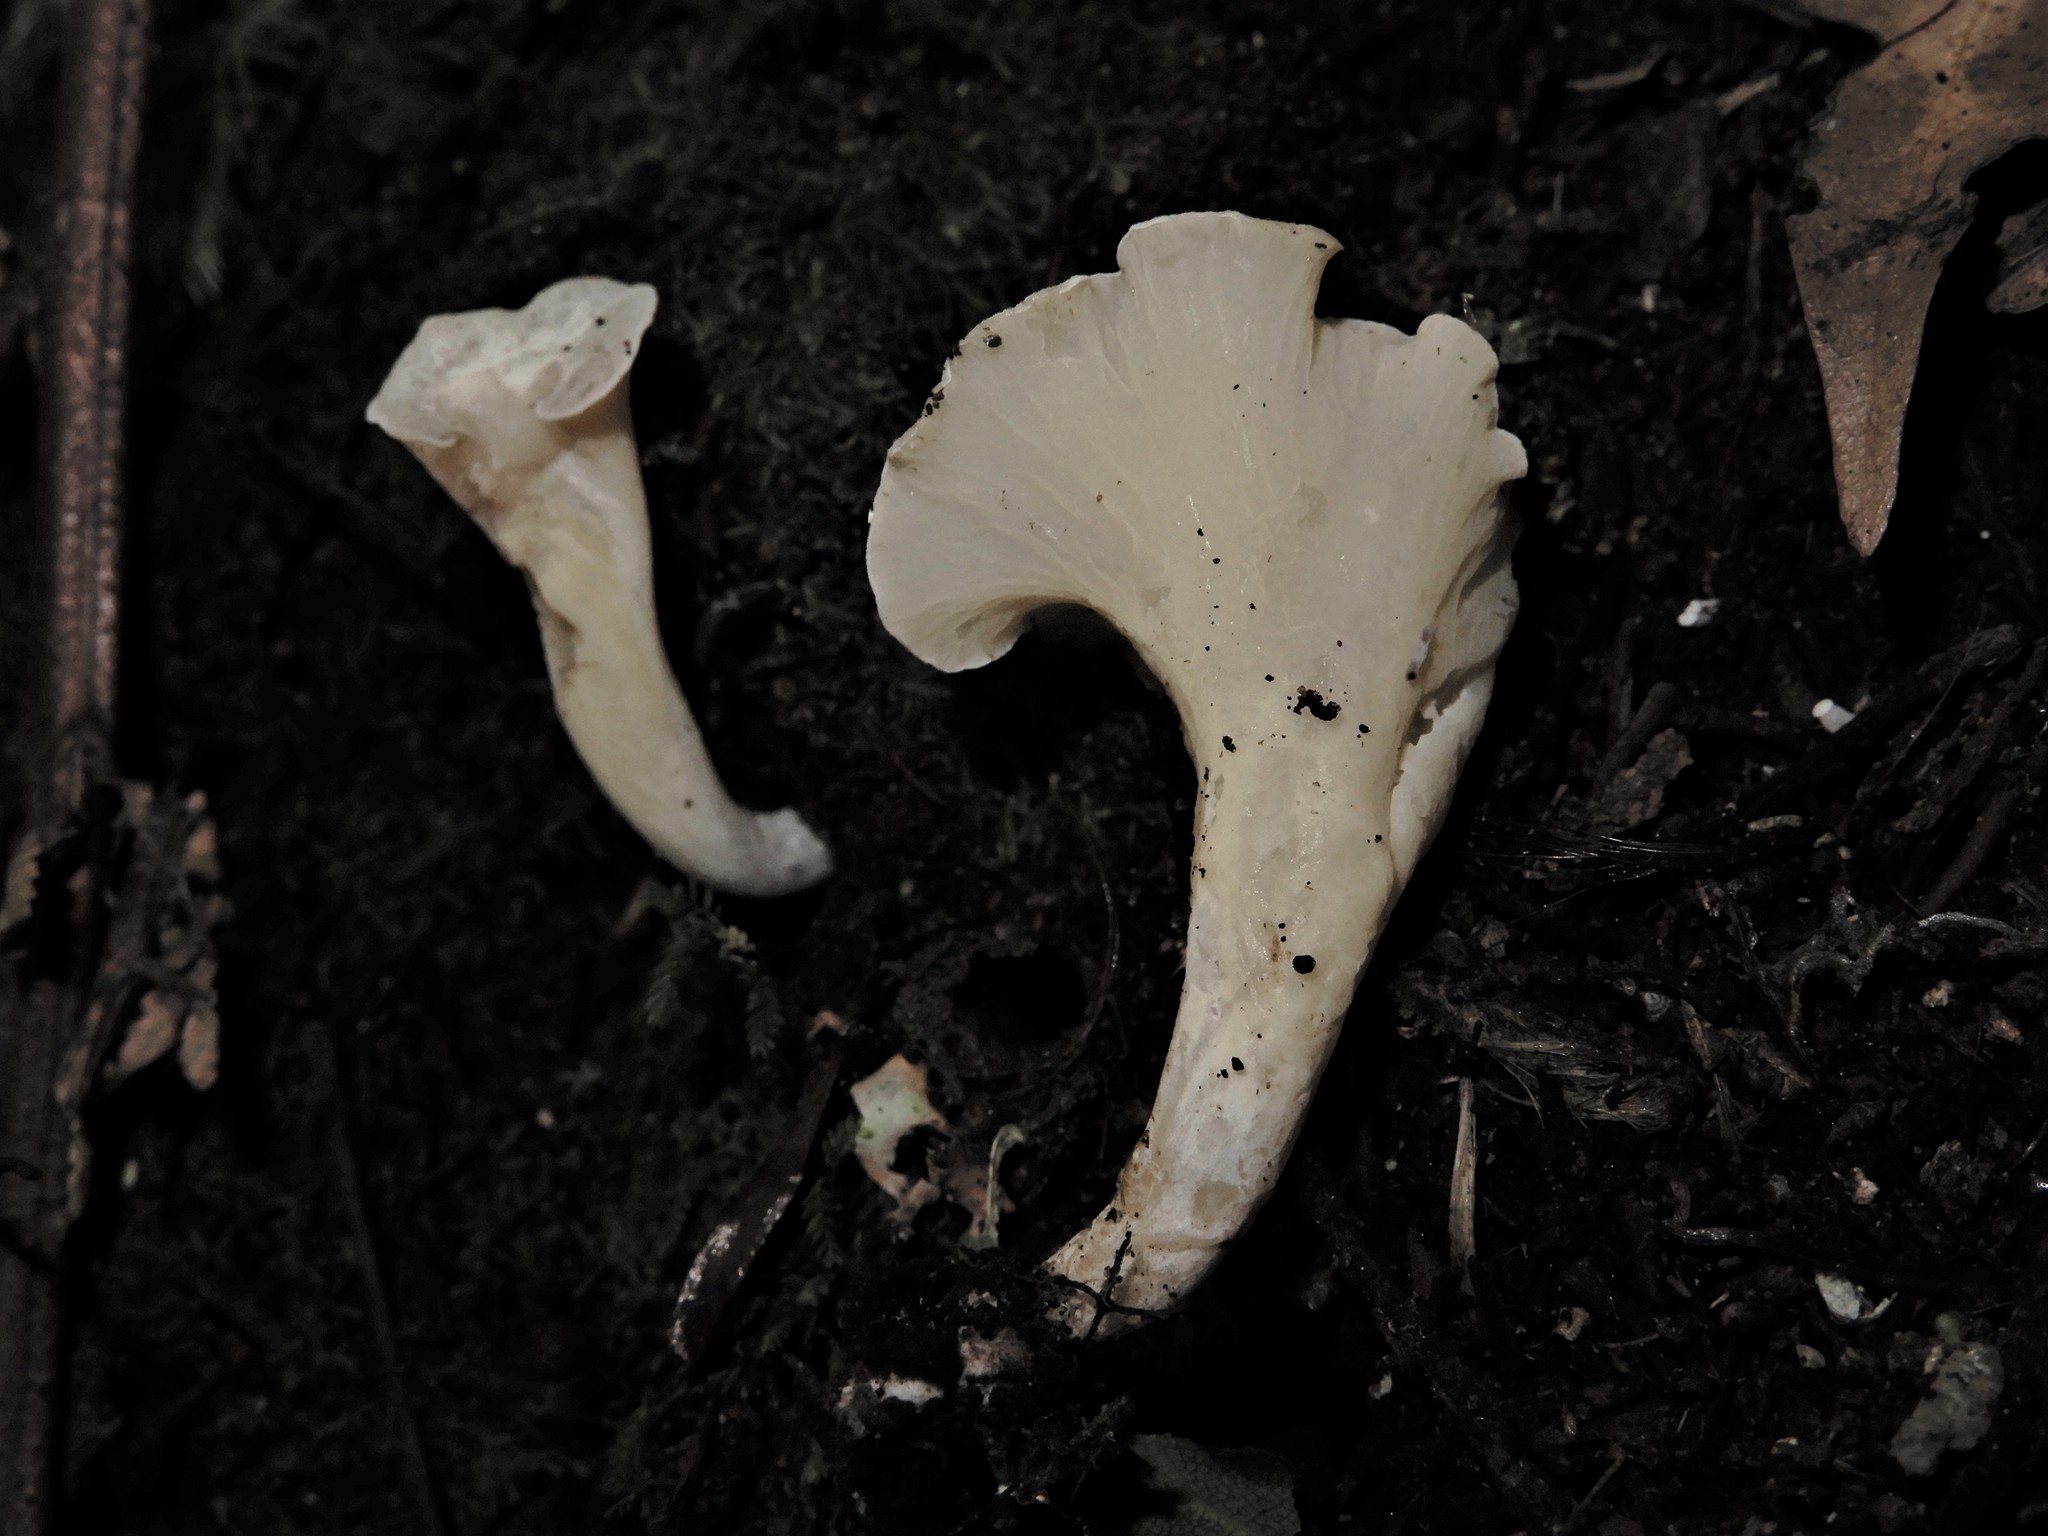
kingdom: Fungi
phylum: Basidiomycota
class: Agaricomycetes
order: Gomphales
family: Gomphaceae
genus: Gloeocantharellus
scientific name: Gloeocantharellus novae-zelandiae
